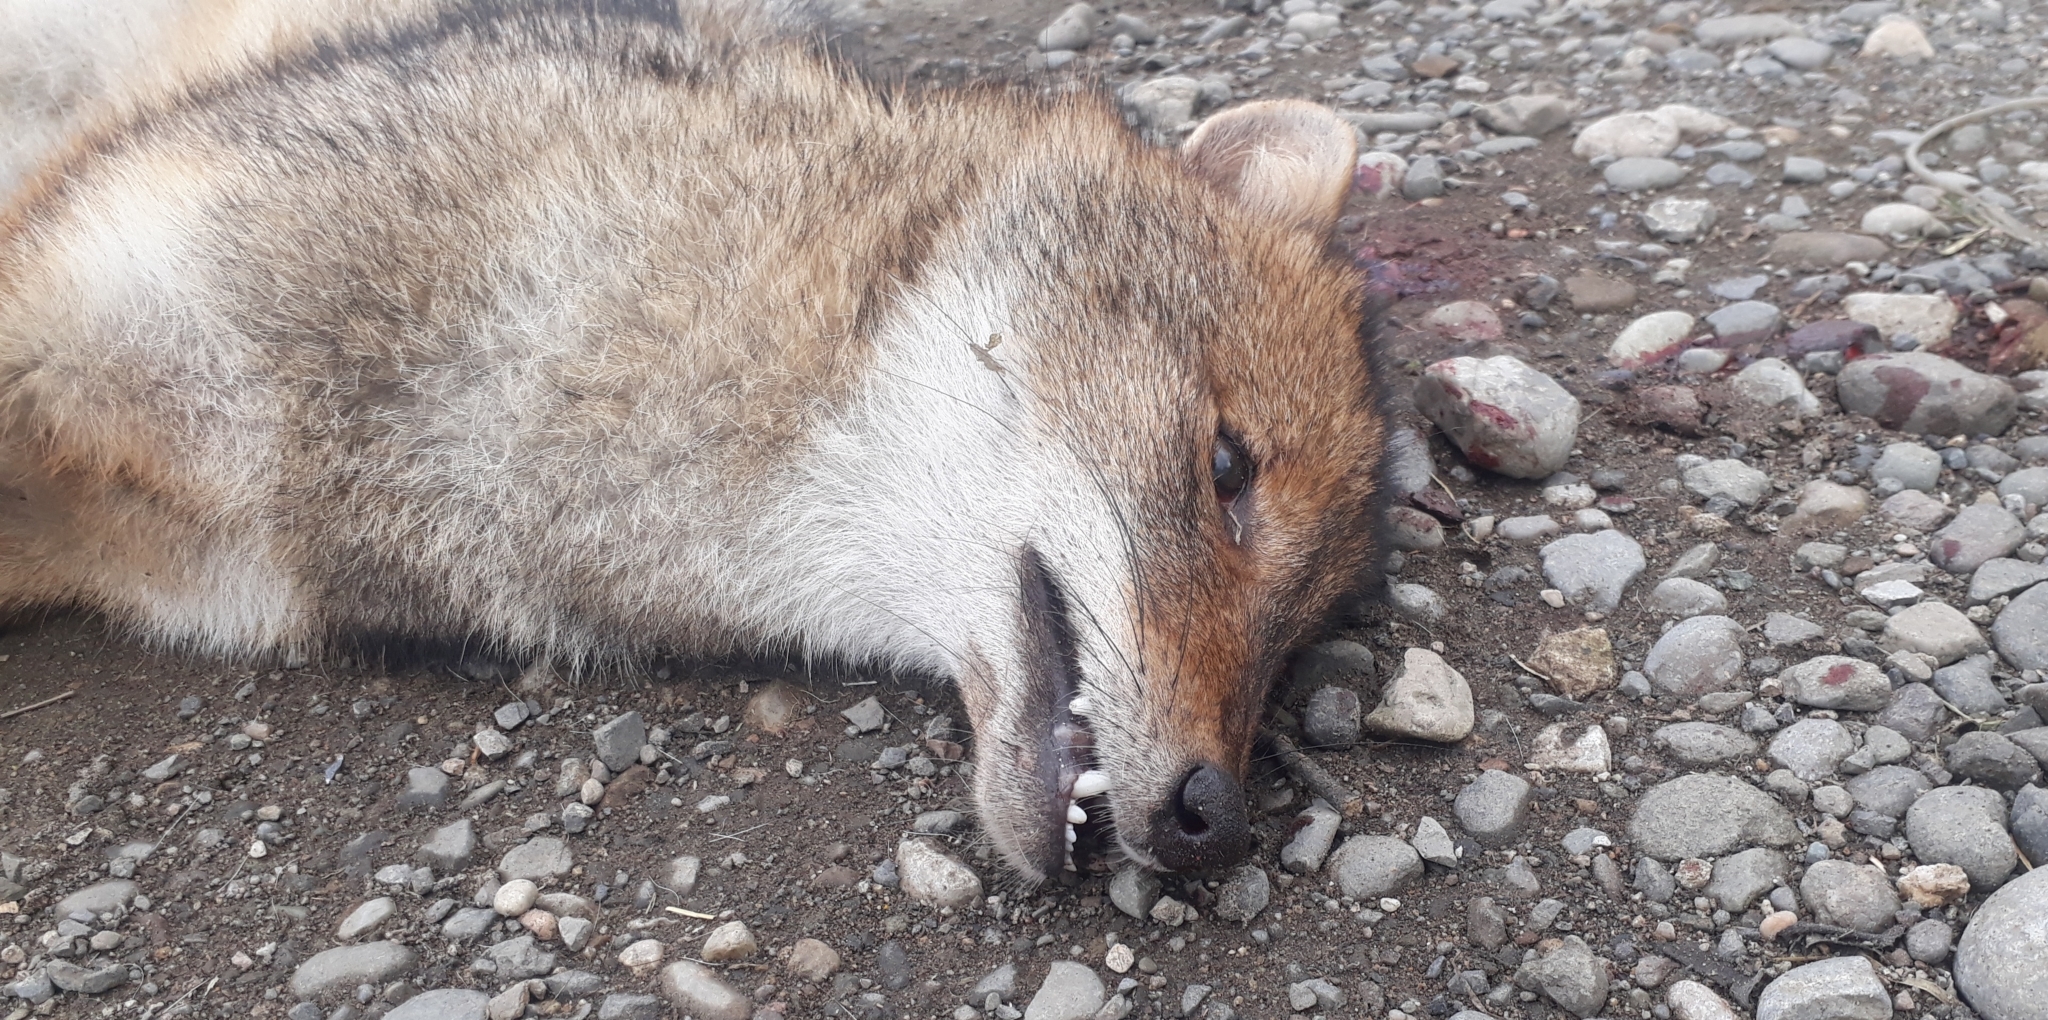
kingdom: Animalia
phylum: Chordata
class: Mammalia
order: Carnivora
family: Canidae
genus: Canis
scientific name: Canis aureus
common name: Golden jackal
